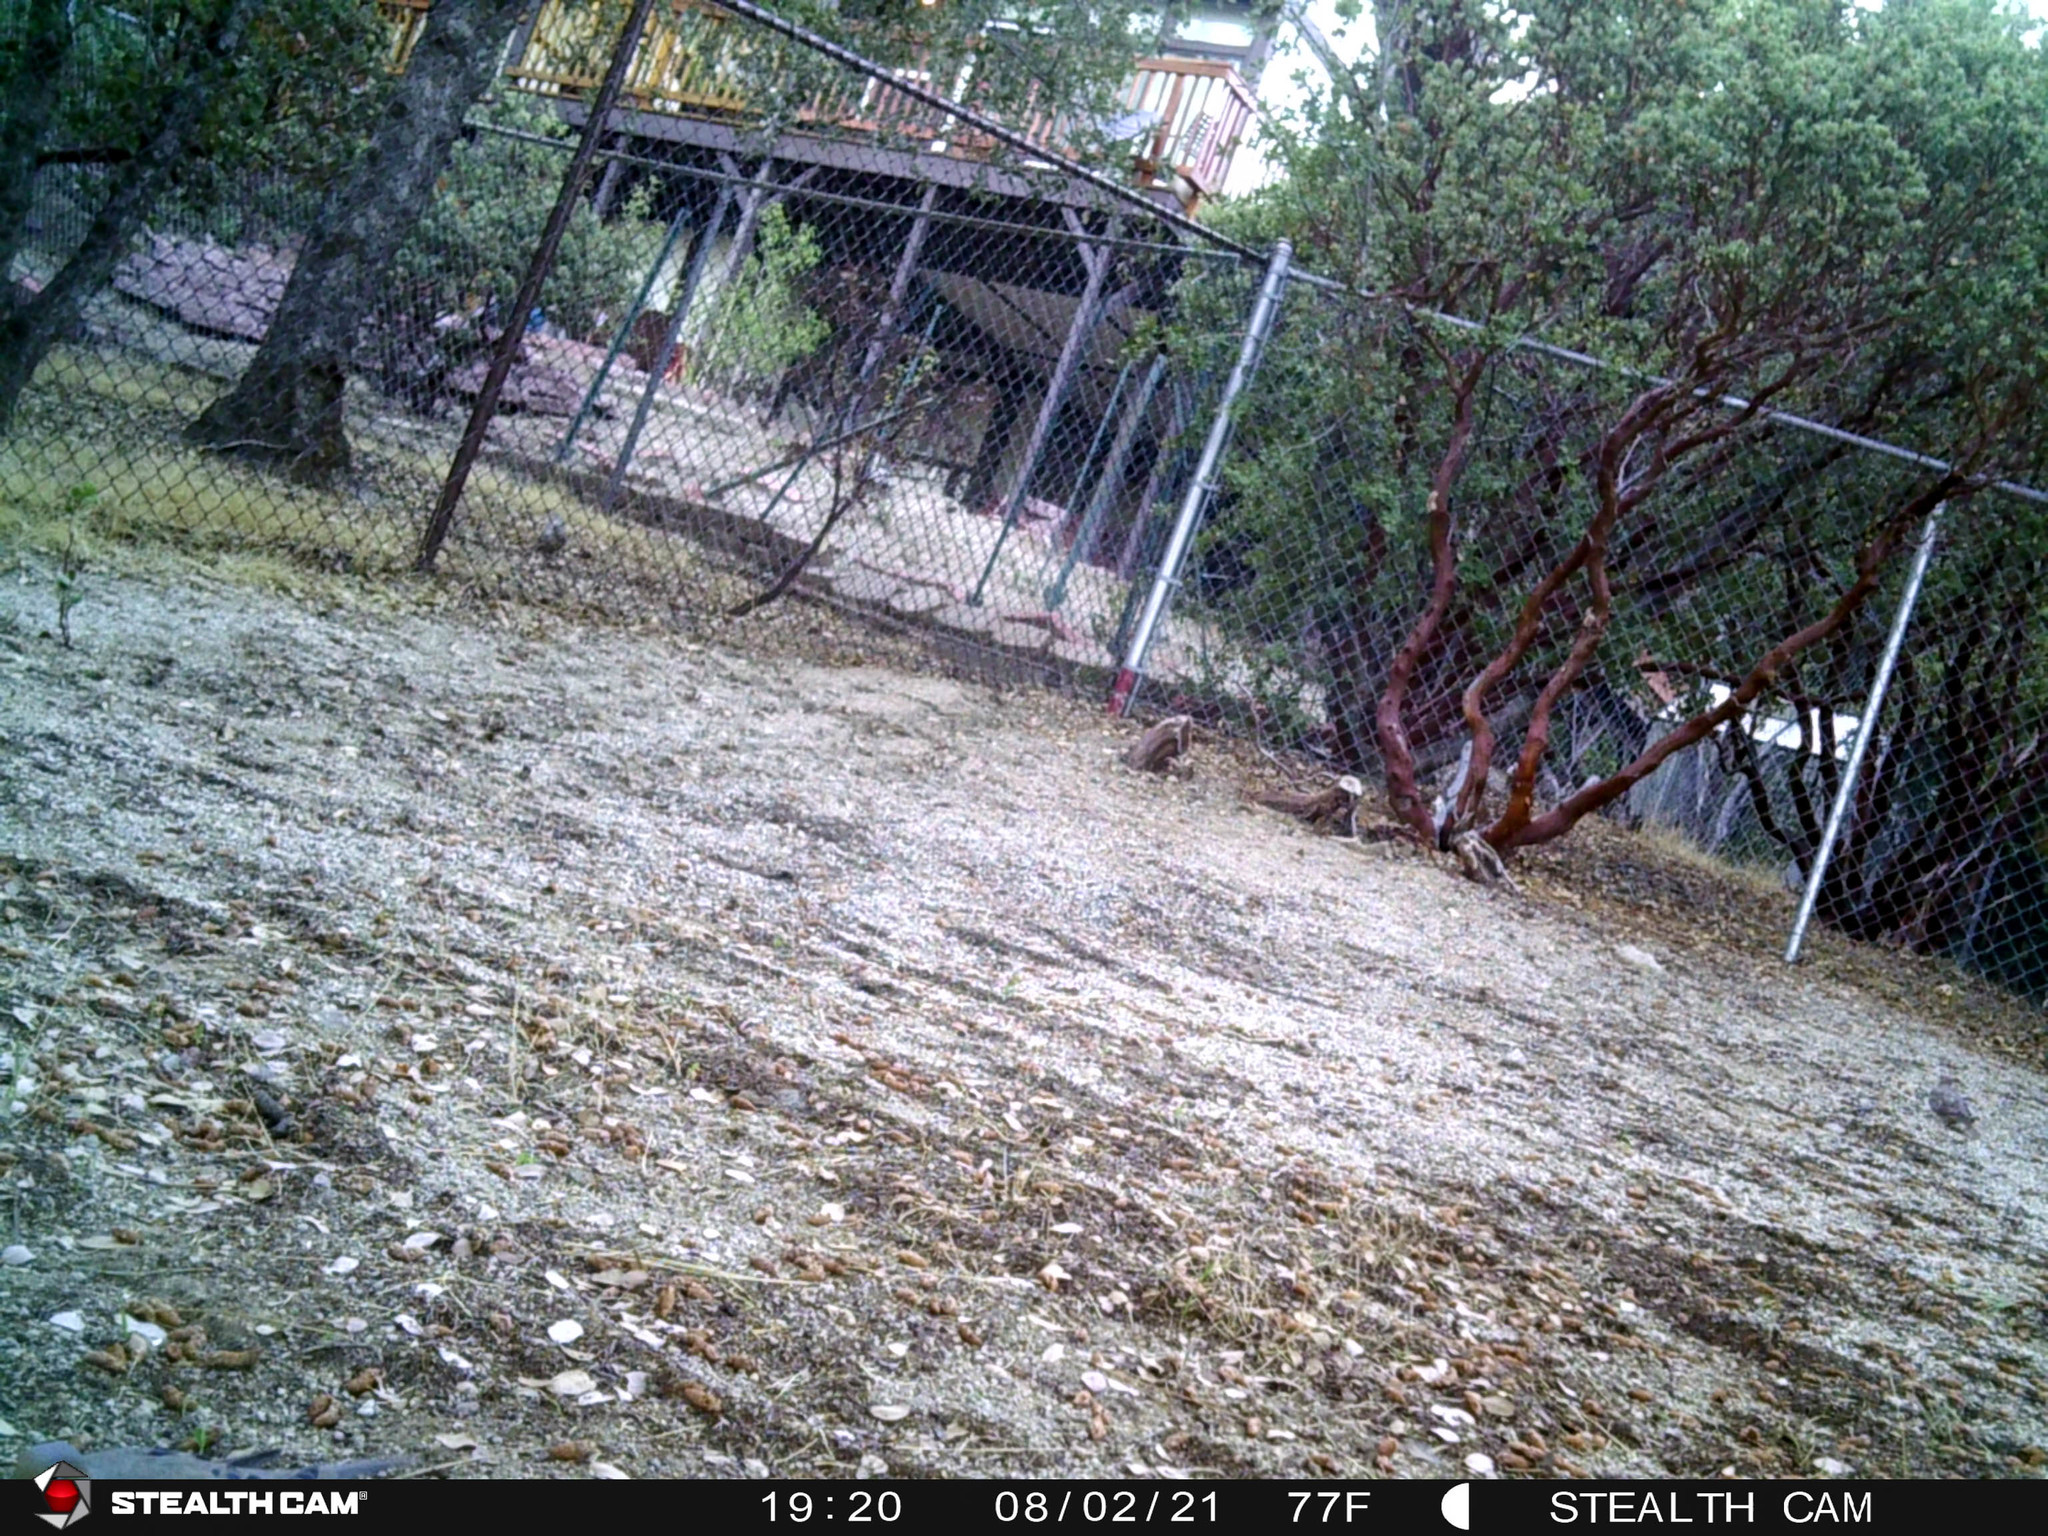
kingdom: Animalia
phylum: Chordata
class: Aves
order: Columbiformes
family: Columbidae
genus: Zenaida
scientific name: Zenaida macroura
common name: Mourning dove
